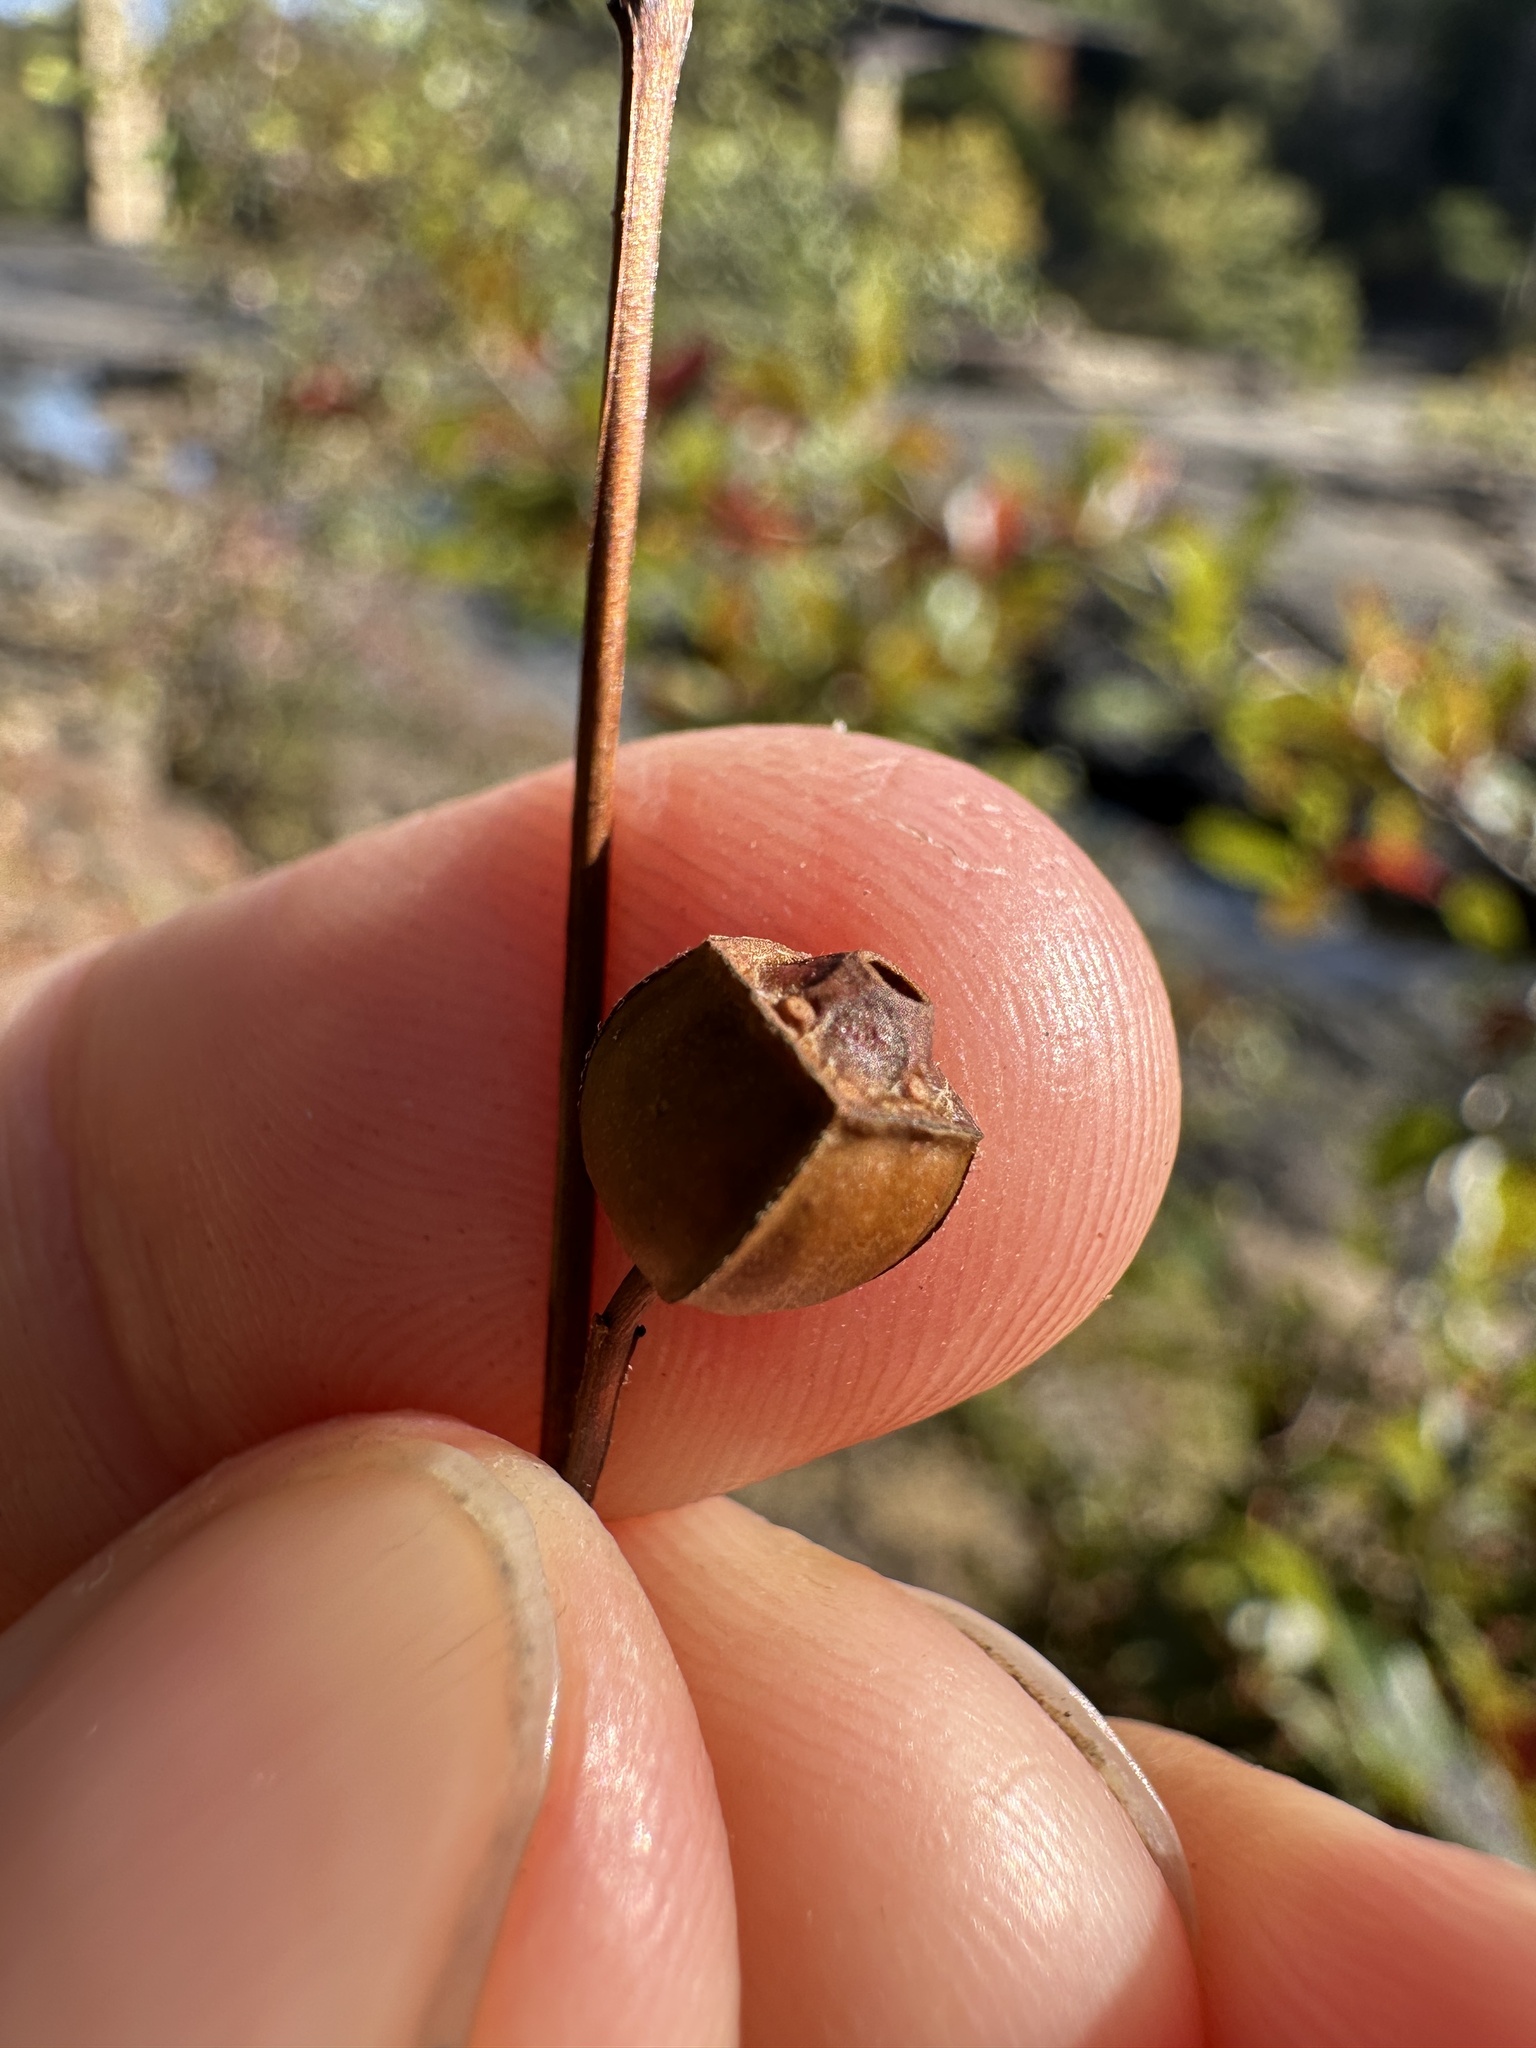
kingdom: Plantae
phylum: Tracheophyta
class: Magnoliopsida
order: Myrtales
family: Onagraceae
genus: Ludwigia
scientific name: Ludwigia alternifolia
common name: Rattlebox
